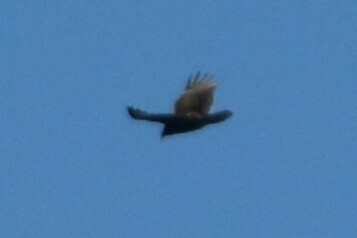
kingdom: Animalia
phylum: Chordata
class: Aves
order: Accipitriformes
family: Cathartidae
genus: Cathartes
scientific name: Cathartes aura
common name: Turkey vulture
